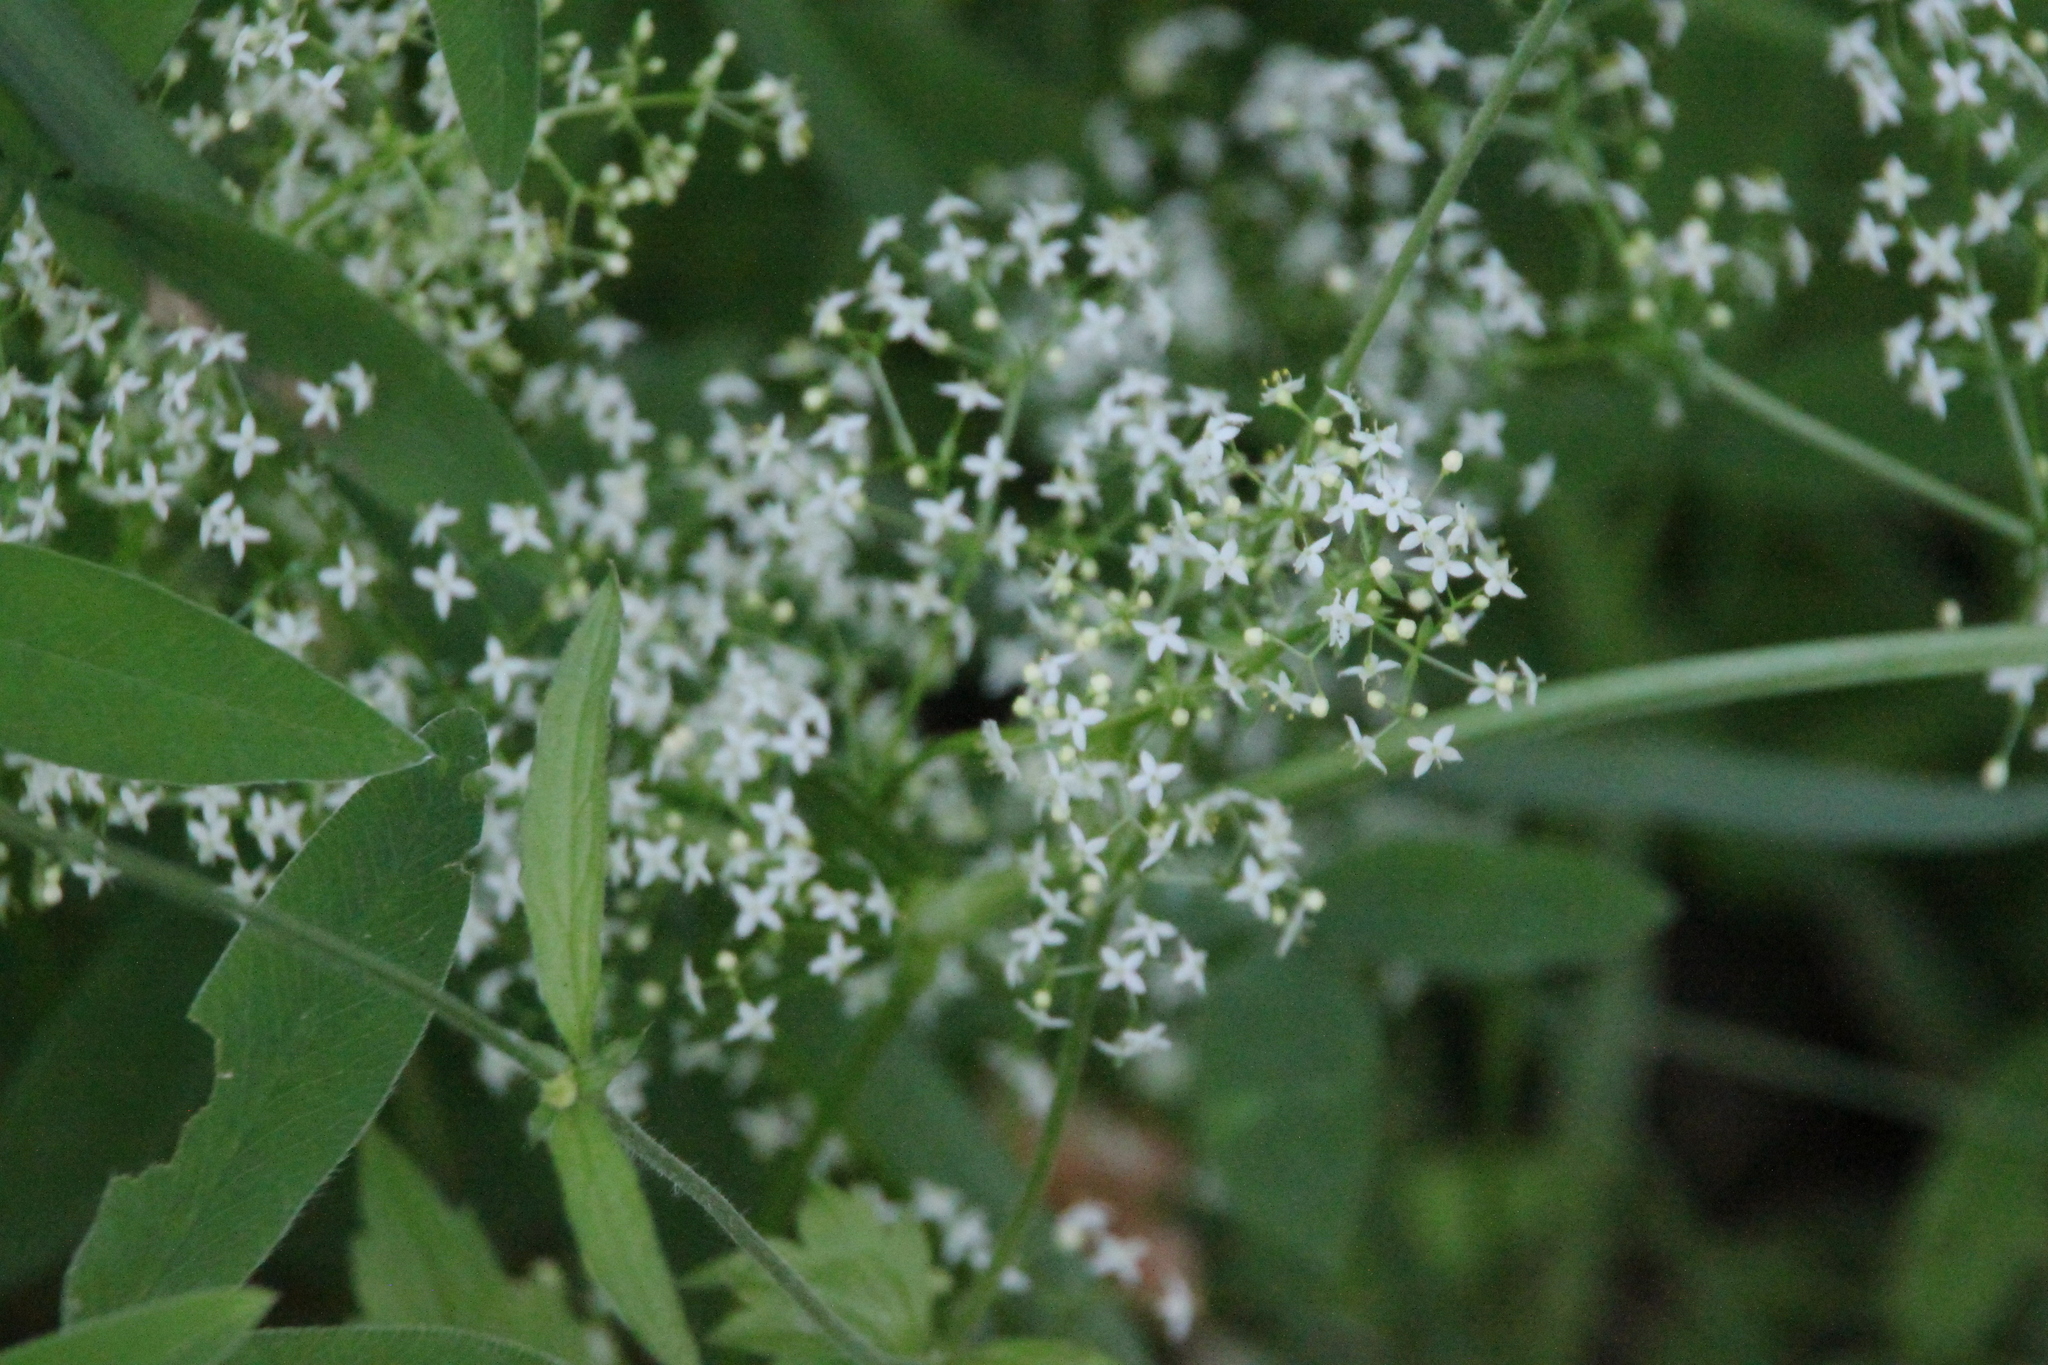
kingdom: Plantae
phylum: Tracheophyta
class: Magnoliopsida
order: Gentianales
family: Rubiaceae
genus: Galium
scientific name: Galium mollugo
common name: Hedge bedstraw
